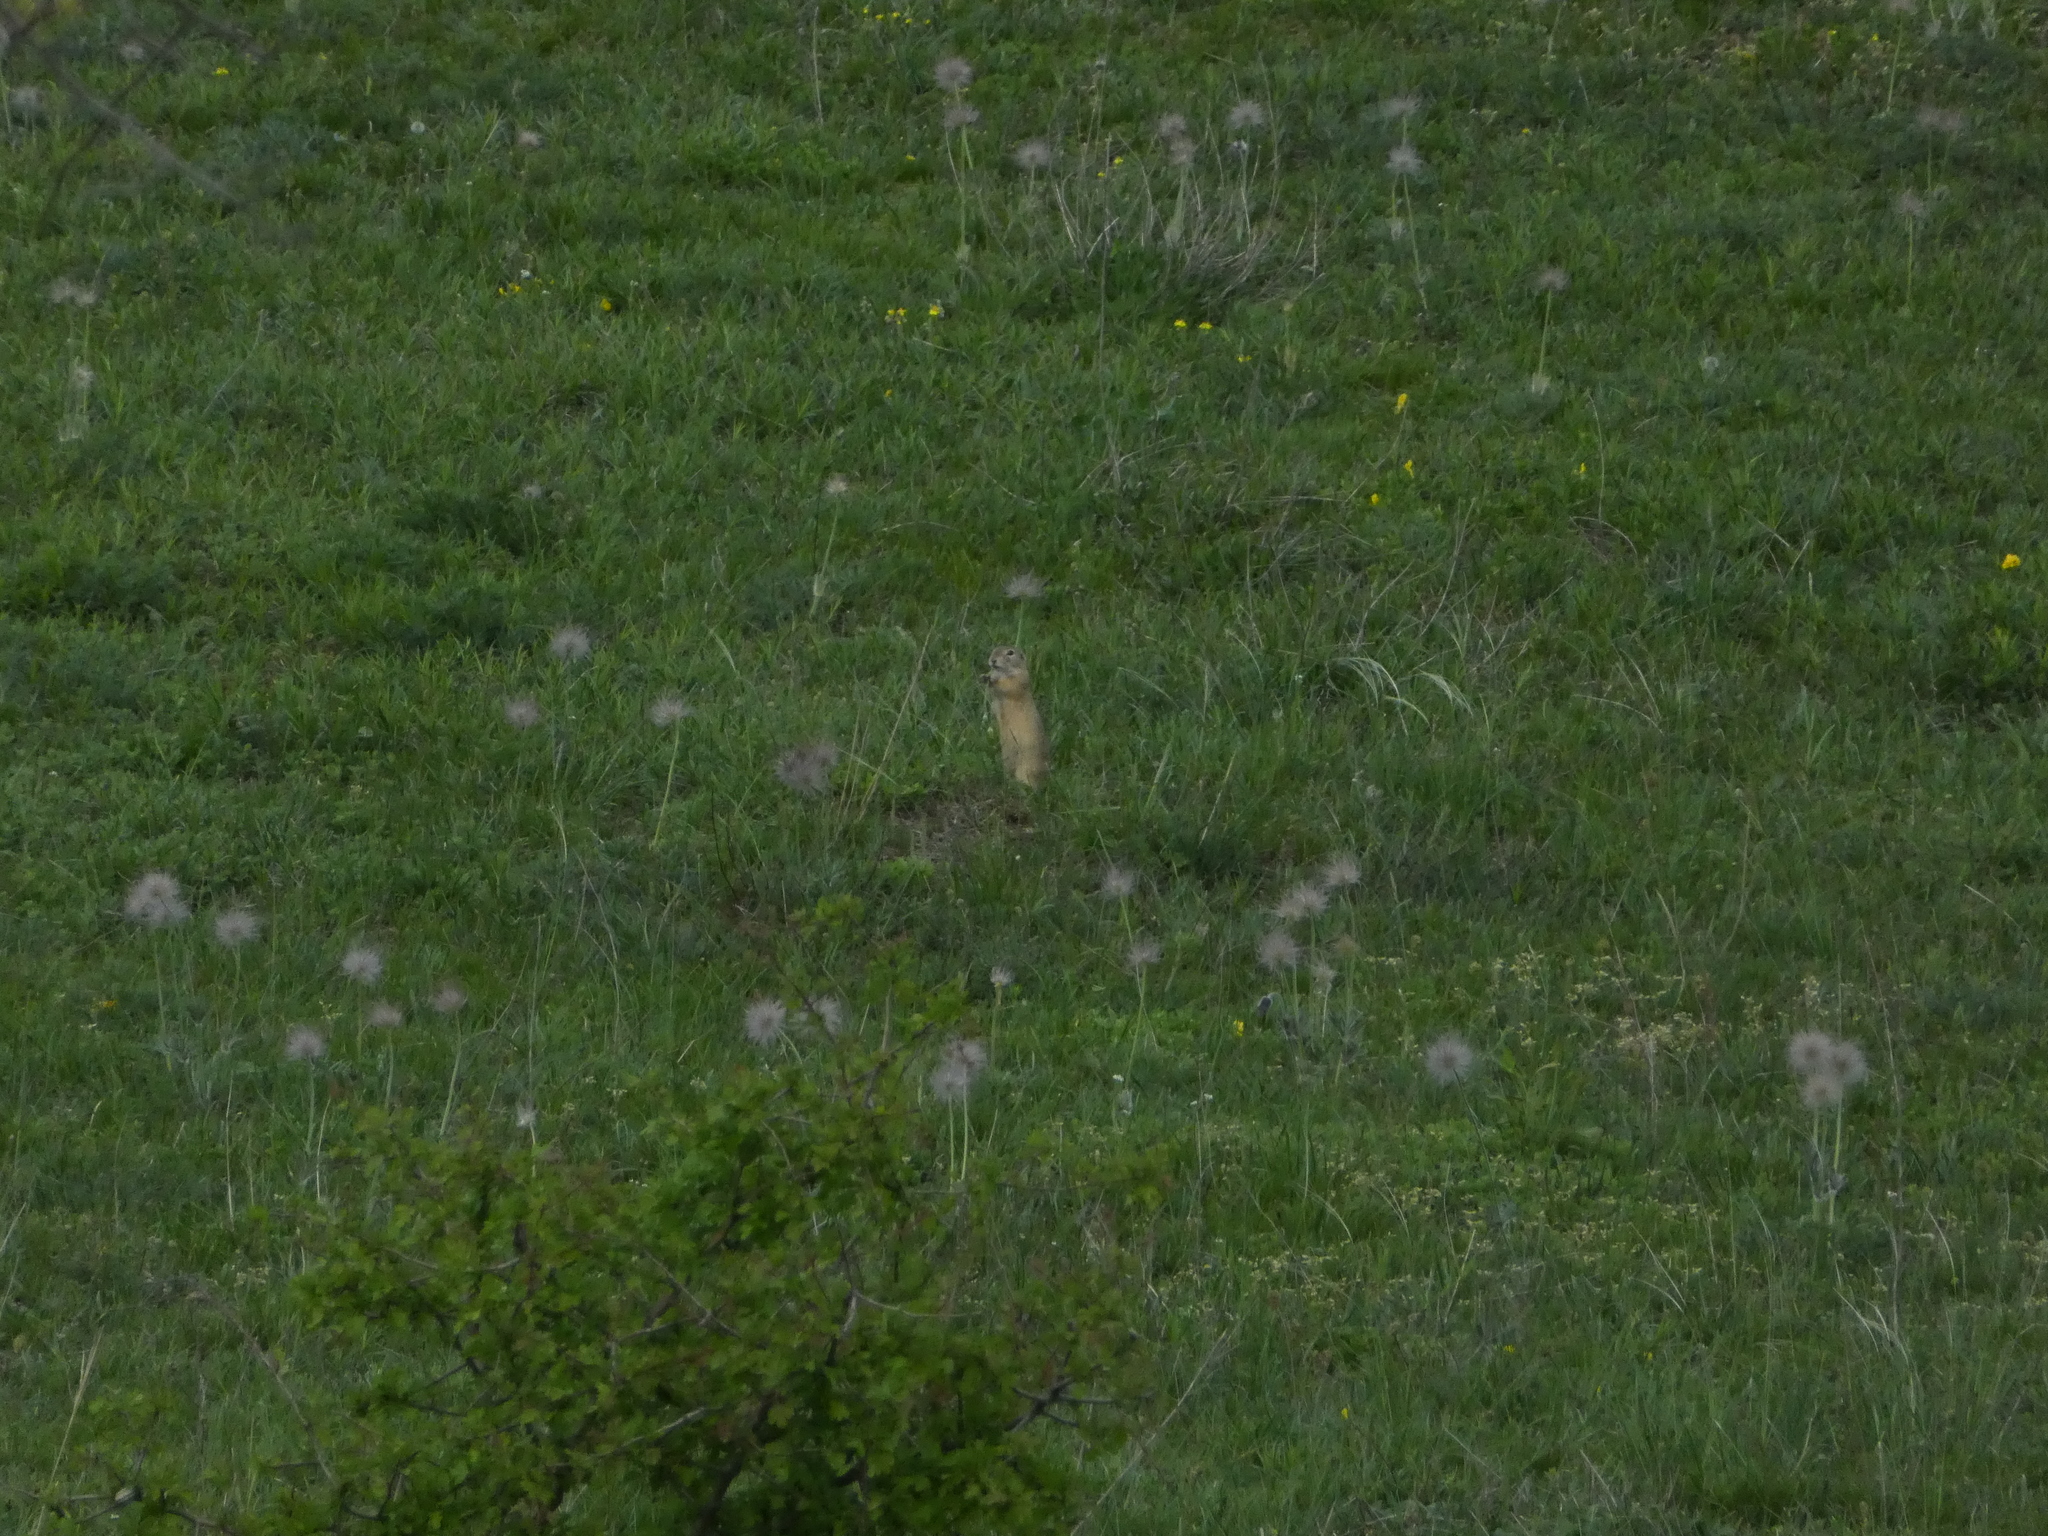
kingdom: Animalia
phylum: Chordata
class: Mammalia
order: Rodentia
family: Sciuridae
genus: Spermophilus
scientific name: Spermophilus citellus
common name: European ground squirrel
